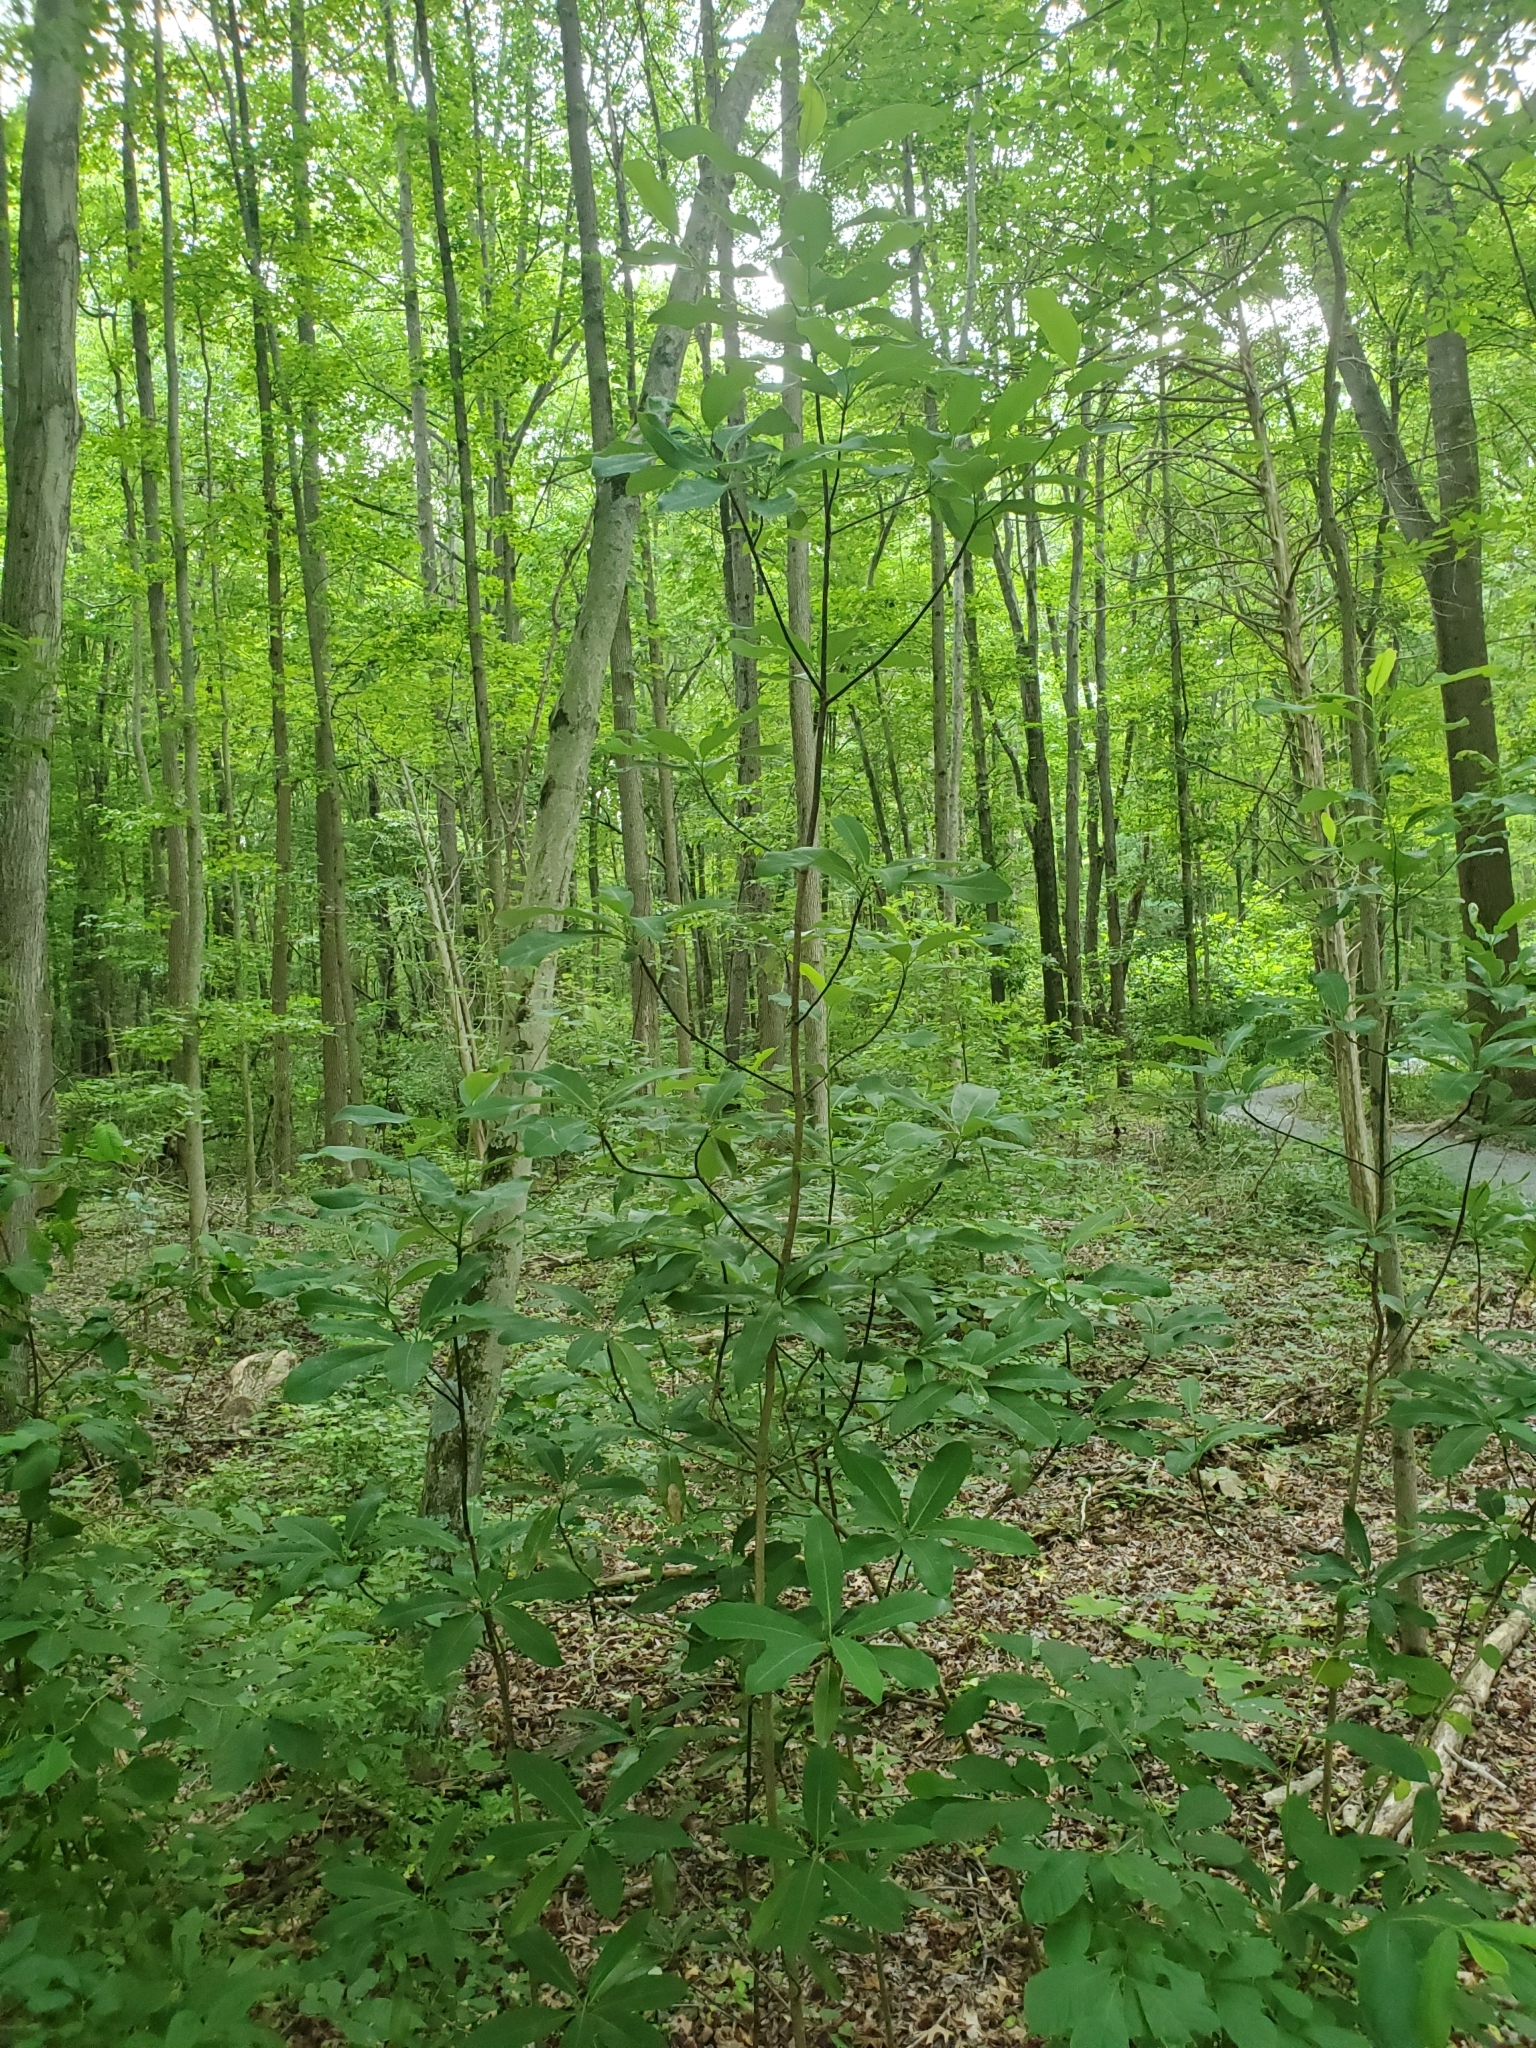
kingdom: Plantae
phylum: Tracheophyta
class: Magnoliopsida
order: Magnoliales
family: Magnoliaceae
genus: Magnolia
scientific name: Magnolia virginiana
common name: Swamp bay
